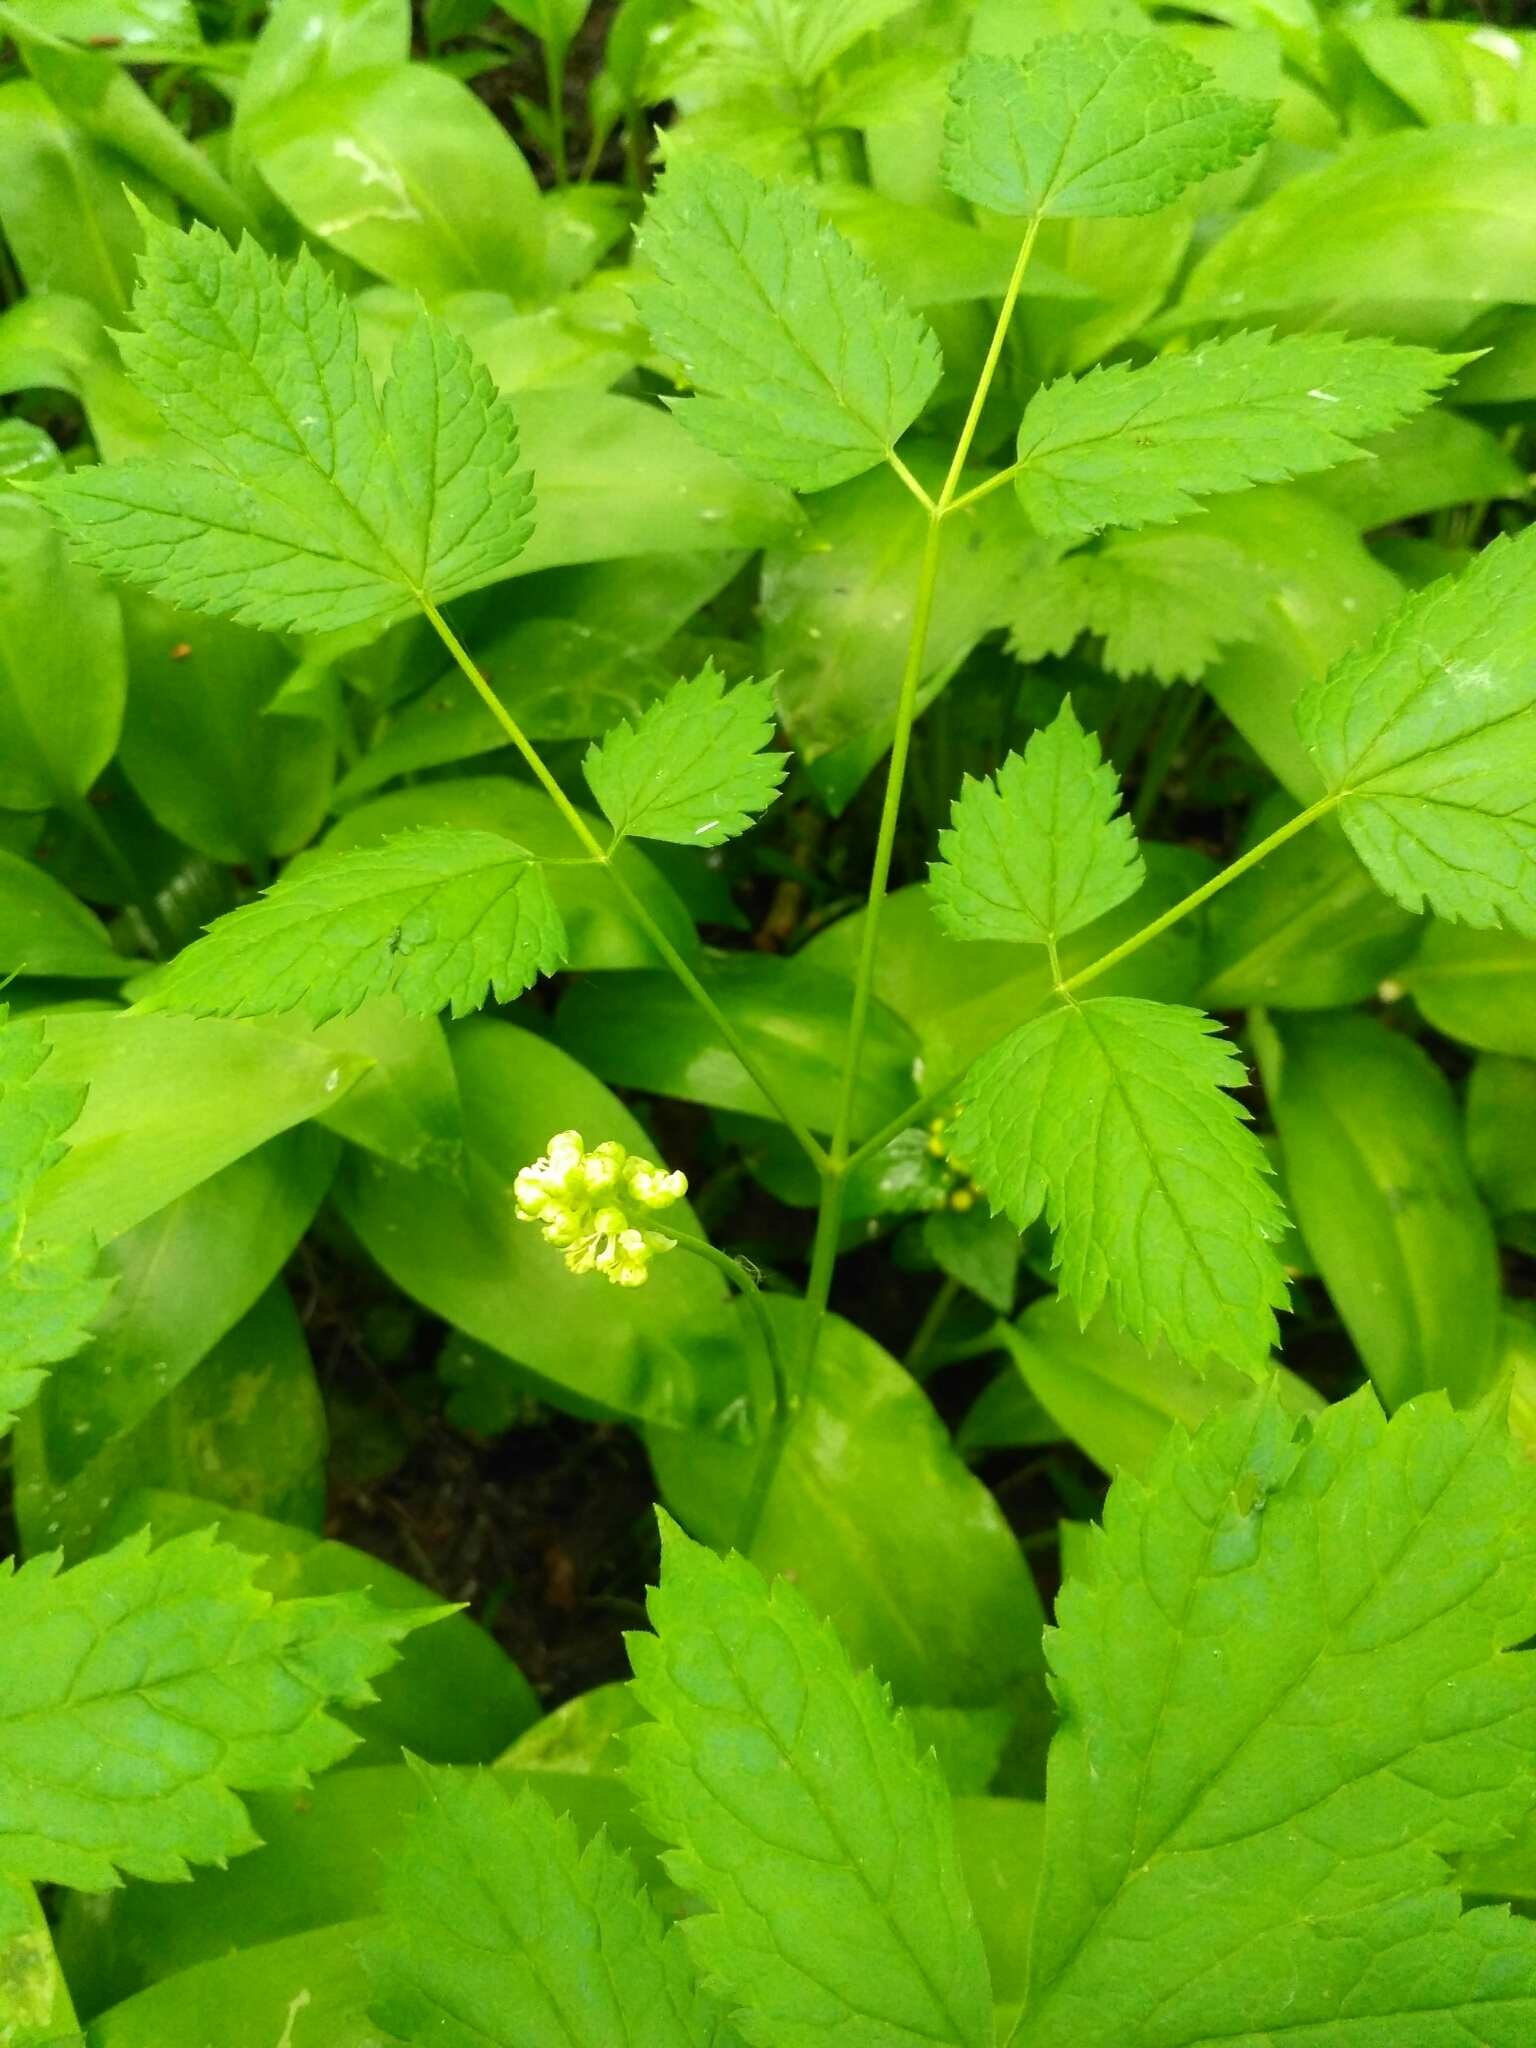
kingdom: Plantae
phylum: Tracheophyta
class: Magnoliopsida
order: Ranunculales
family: Ranunculaceae
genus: Actaea
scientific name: Actaea spicata
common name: Baneberry
